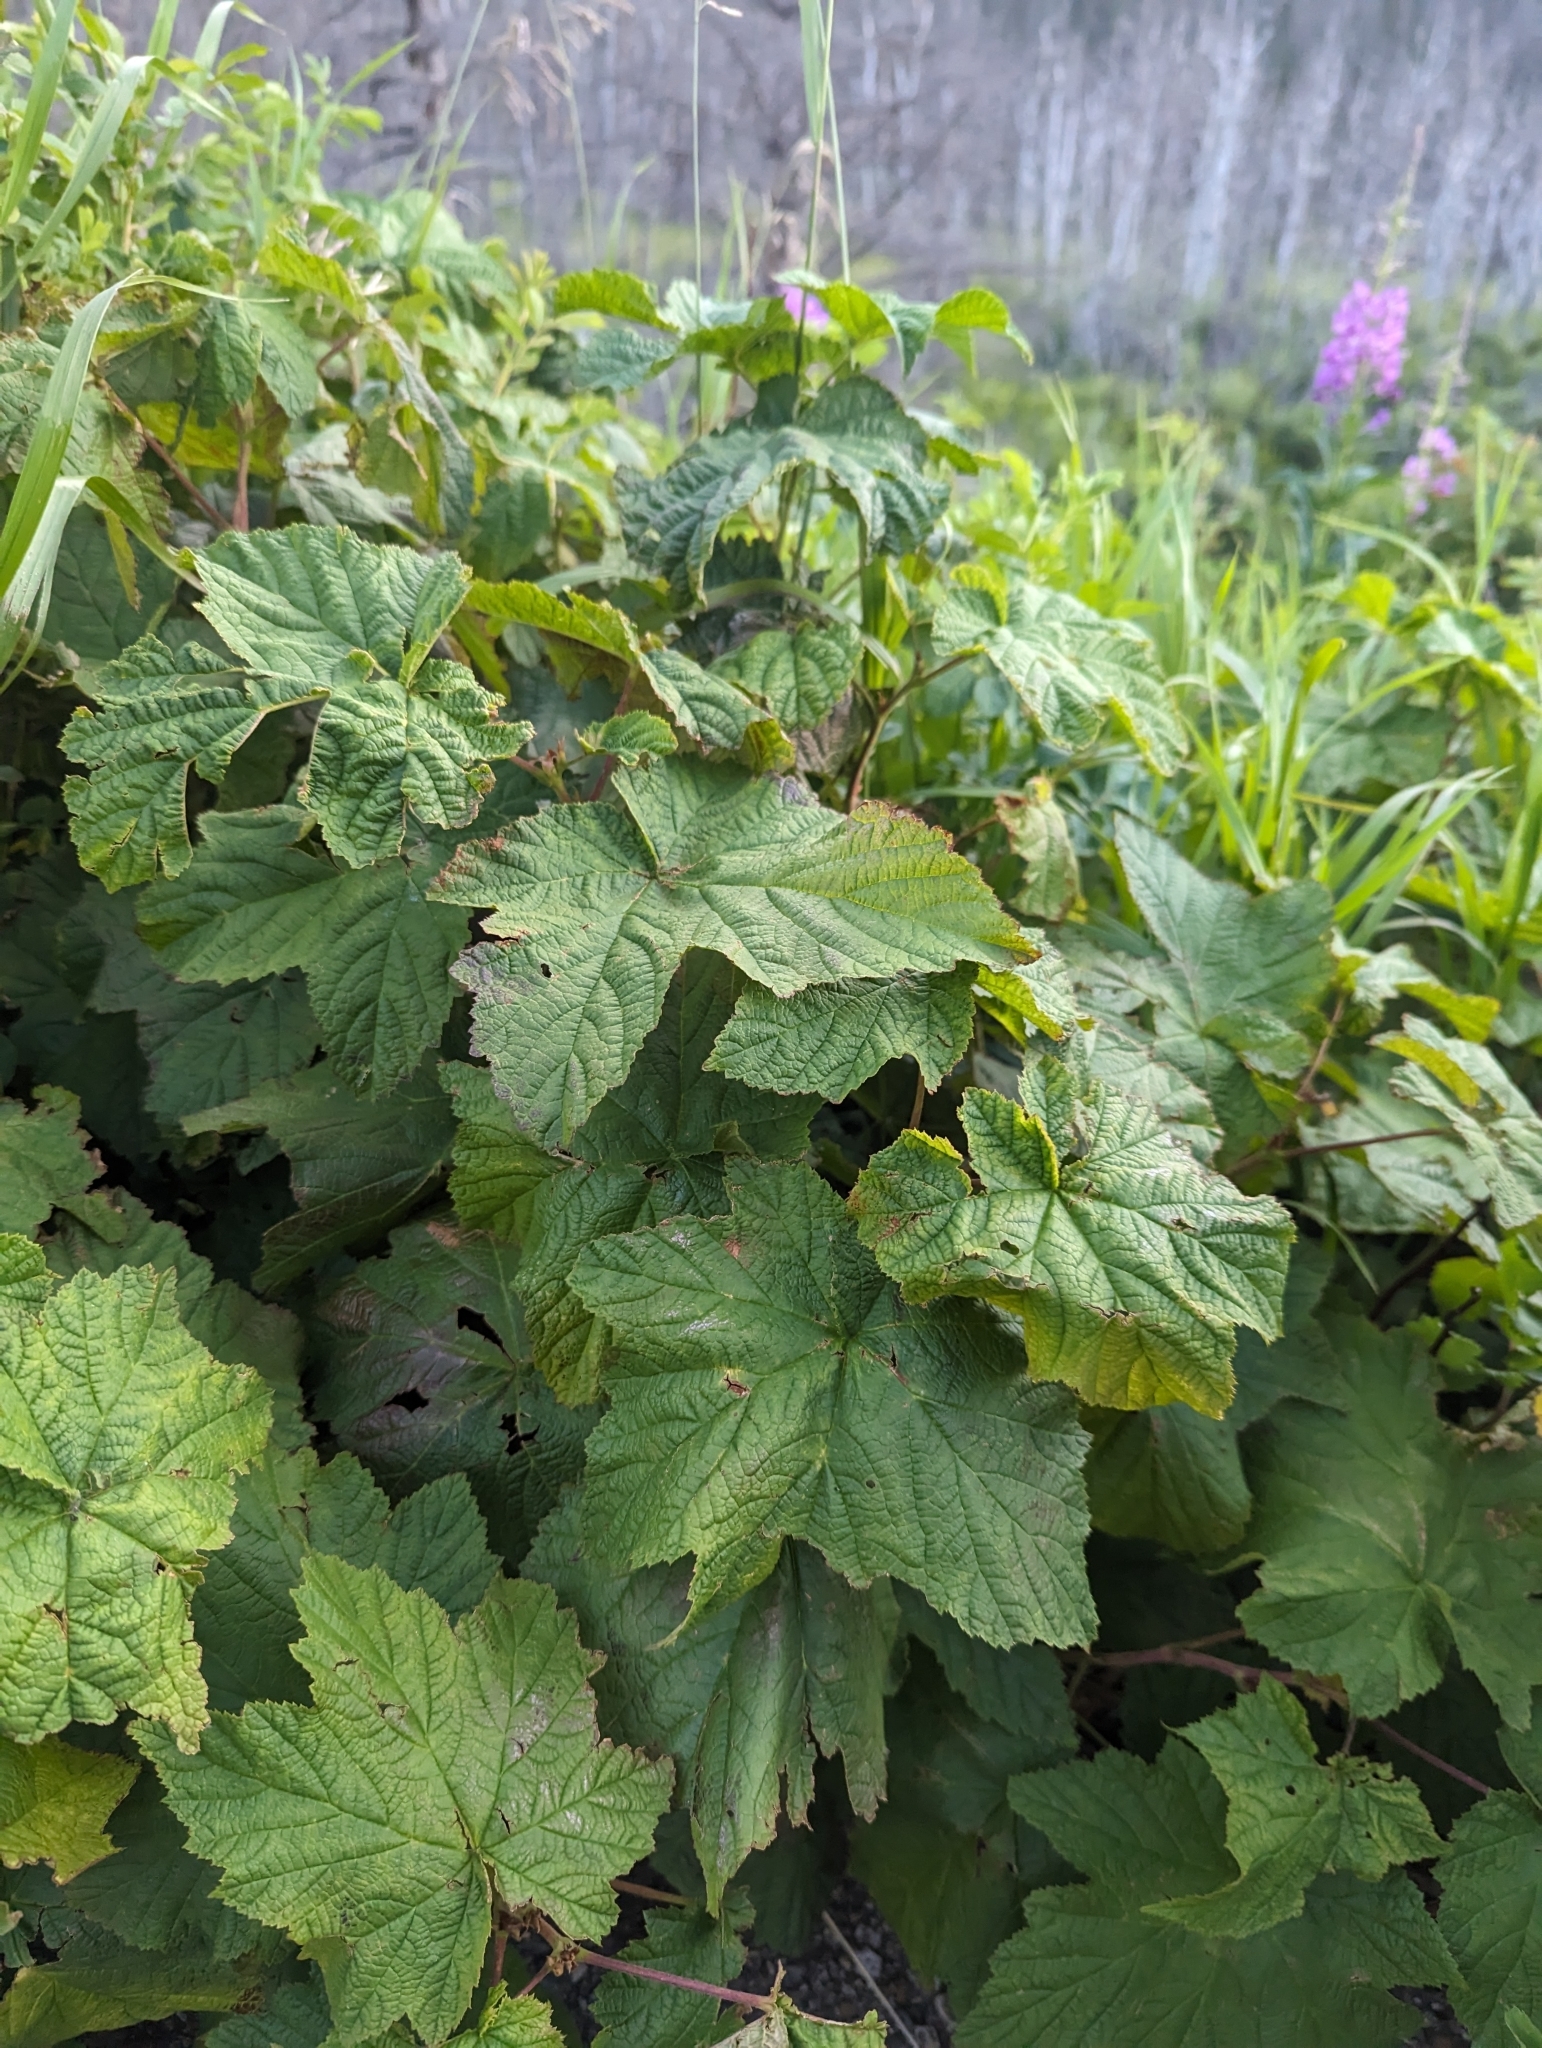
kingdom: Plantae
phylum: Tracheophyta
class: Magnoliopsida
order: Rosales
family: Rosaceae
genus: Rubus
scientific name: Rubus parviflorus
